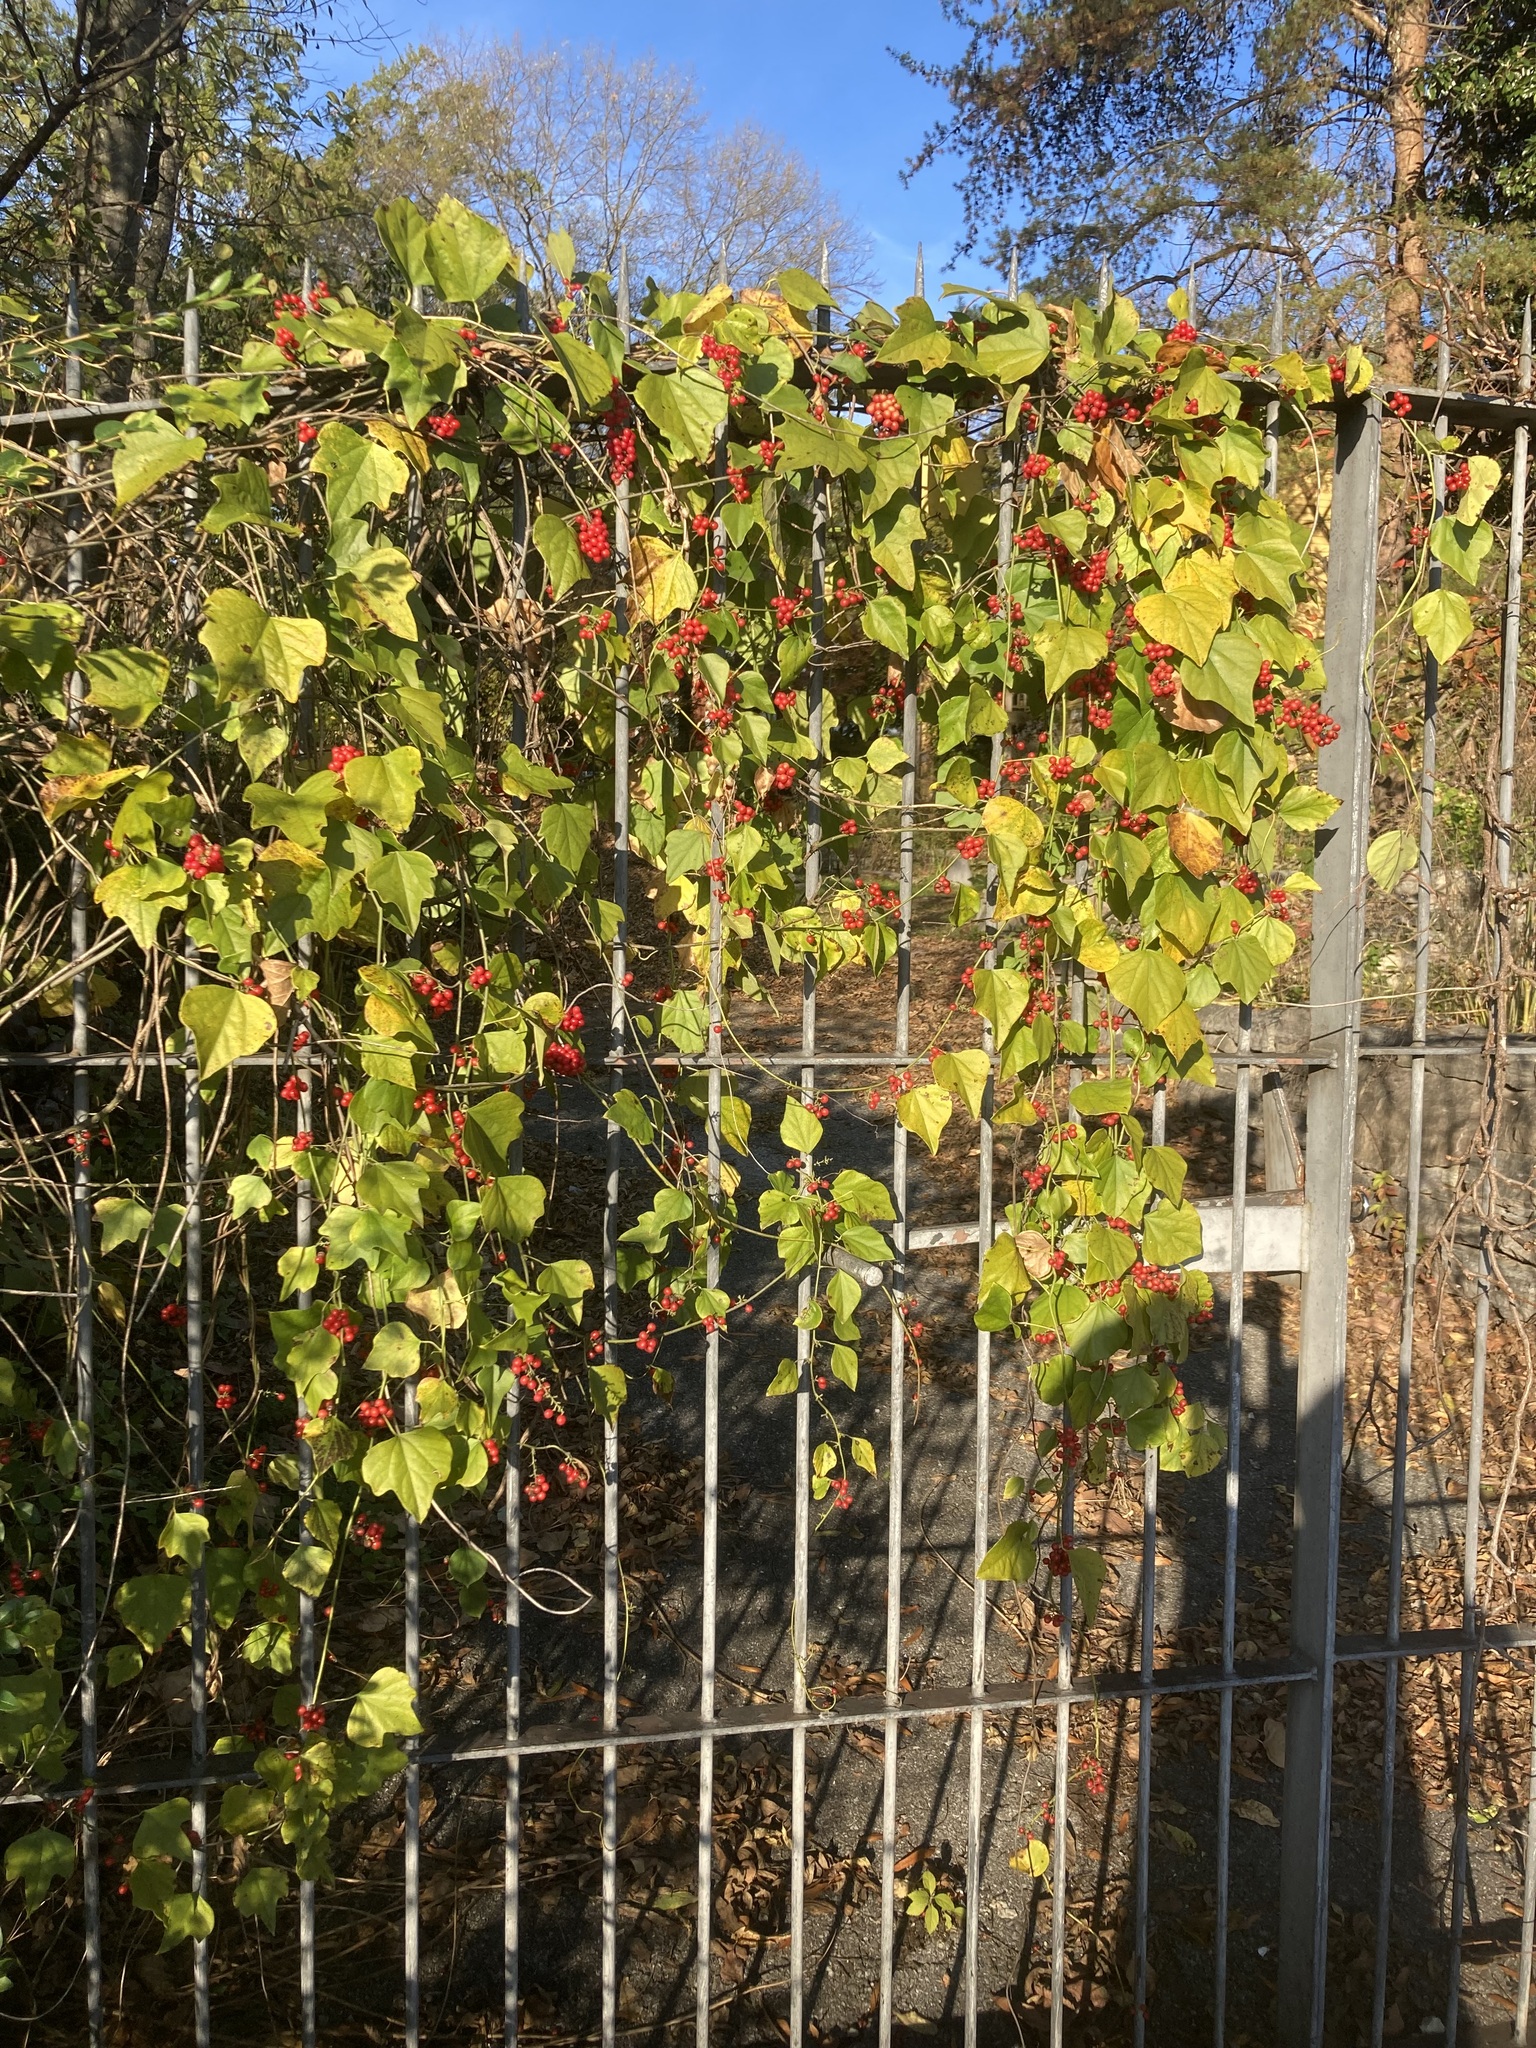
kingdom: Plantae
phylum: Tracheophyta
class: Magnoliopsida
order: Ranunculales
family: Menispermaceae
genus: Cocculus
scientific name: Cocculus carolinus
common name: Carolina moonseed
